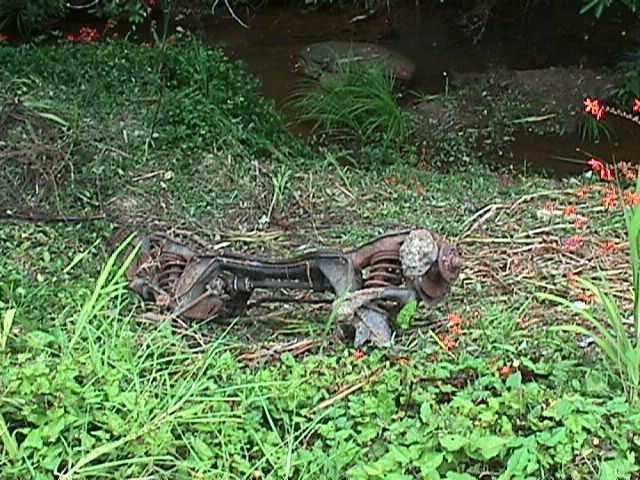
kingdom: Plantae
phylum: Tracheophyta
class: Liliopsida
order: Asparagales
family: Iridaceae
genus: Crocosmia
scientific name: Crocosmia crocosmiiflora
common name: Montbretia
